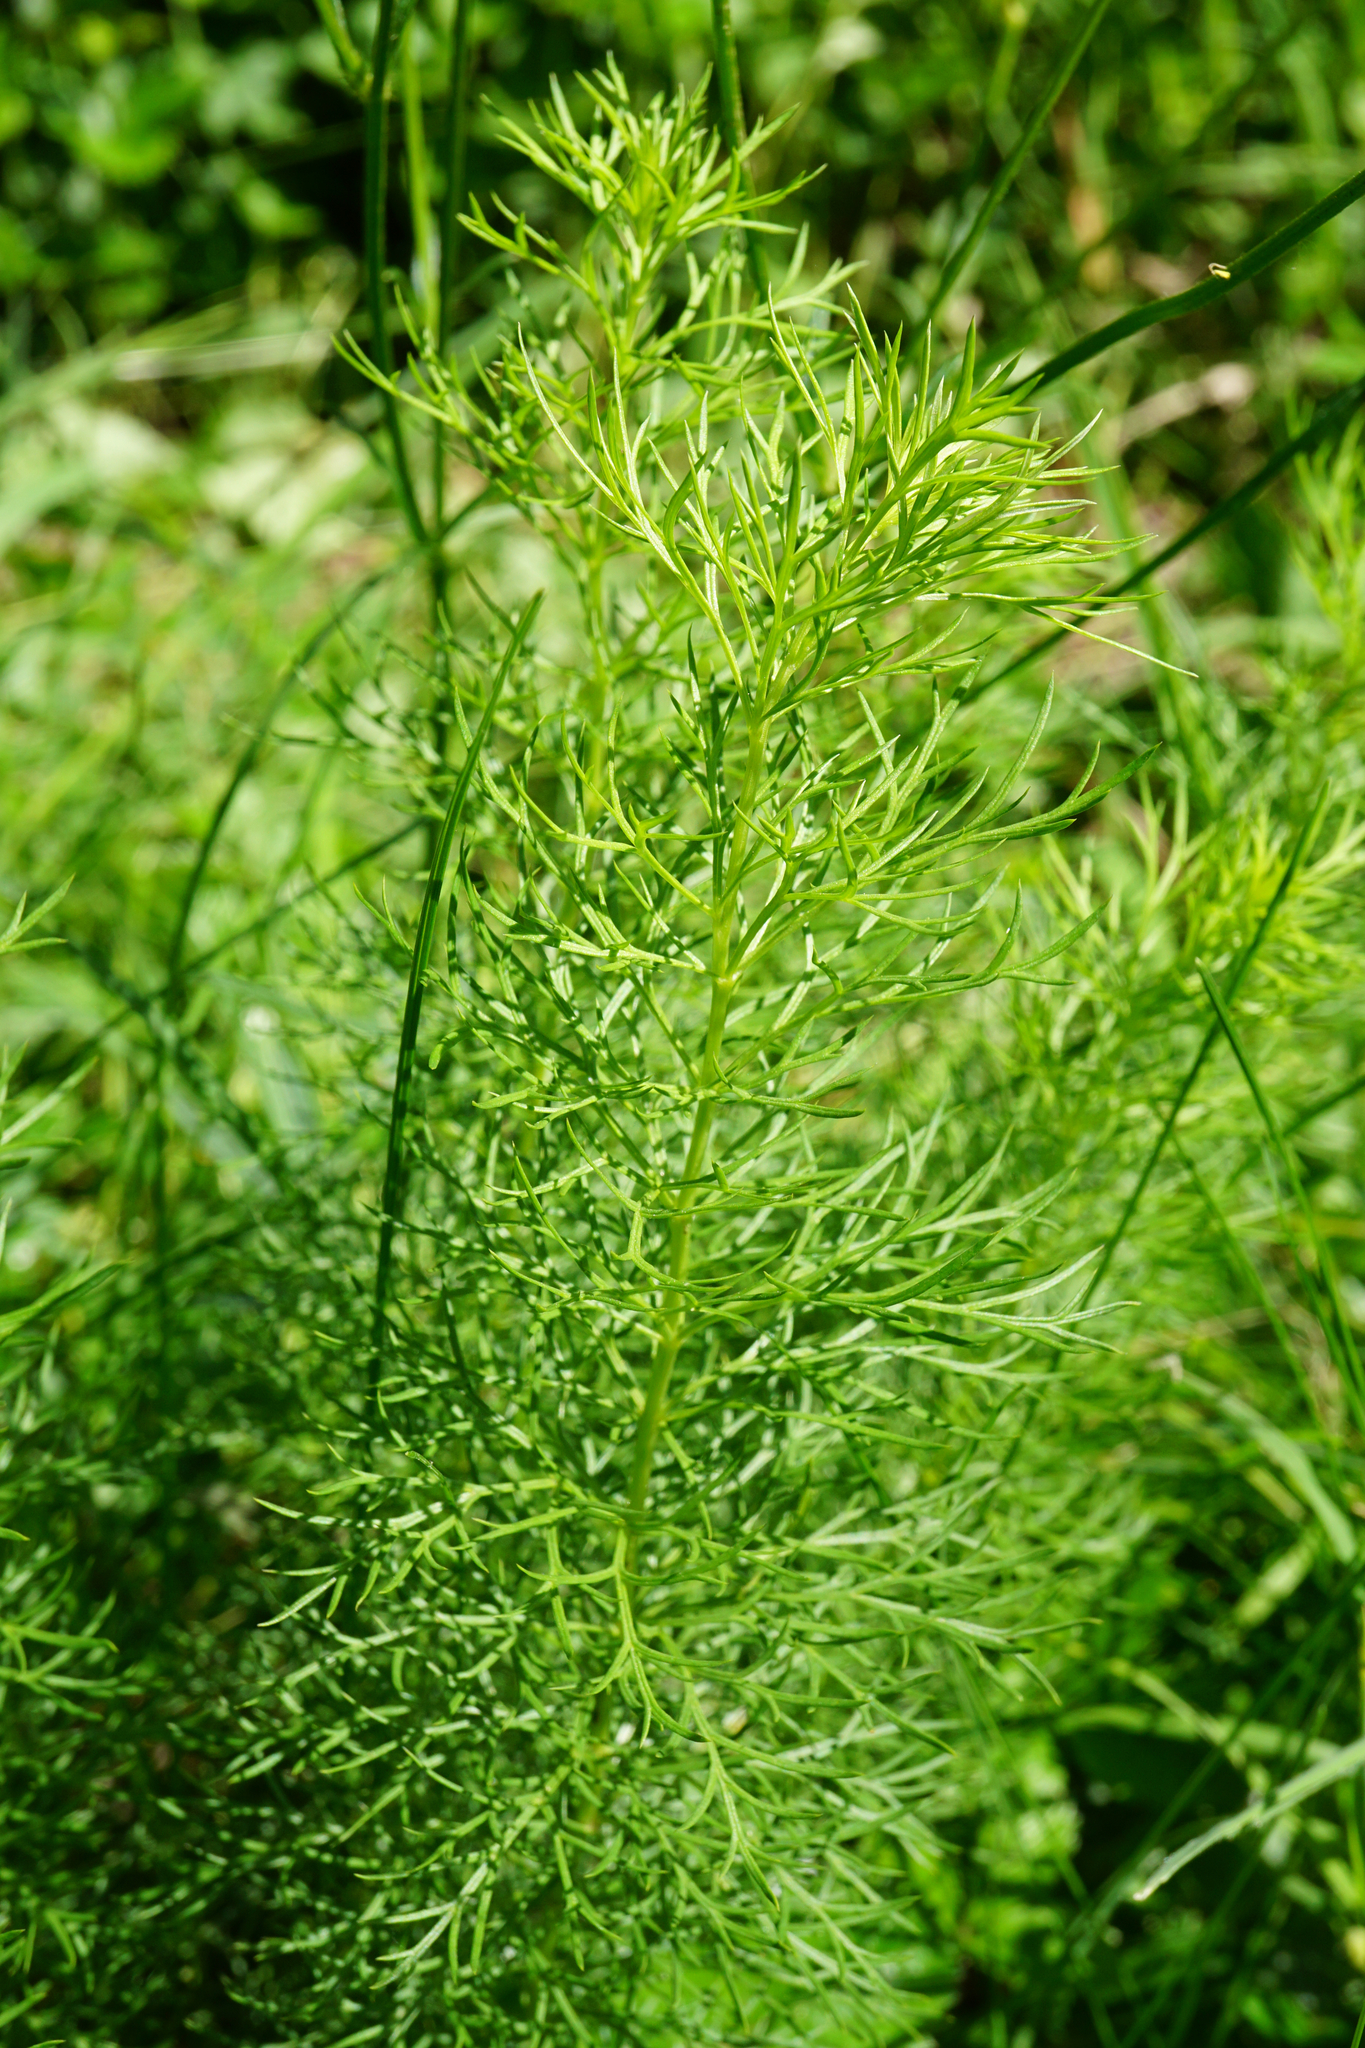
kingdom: Plantae
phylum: Tracheophyta
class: Magnoliopsida
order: Ranunculales
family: Ranunculaceae
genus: Adonis
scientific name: Adonis vernalis
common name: Yellow pheasants-eye
